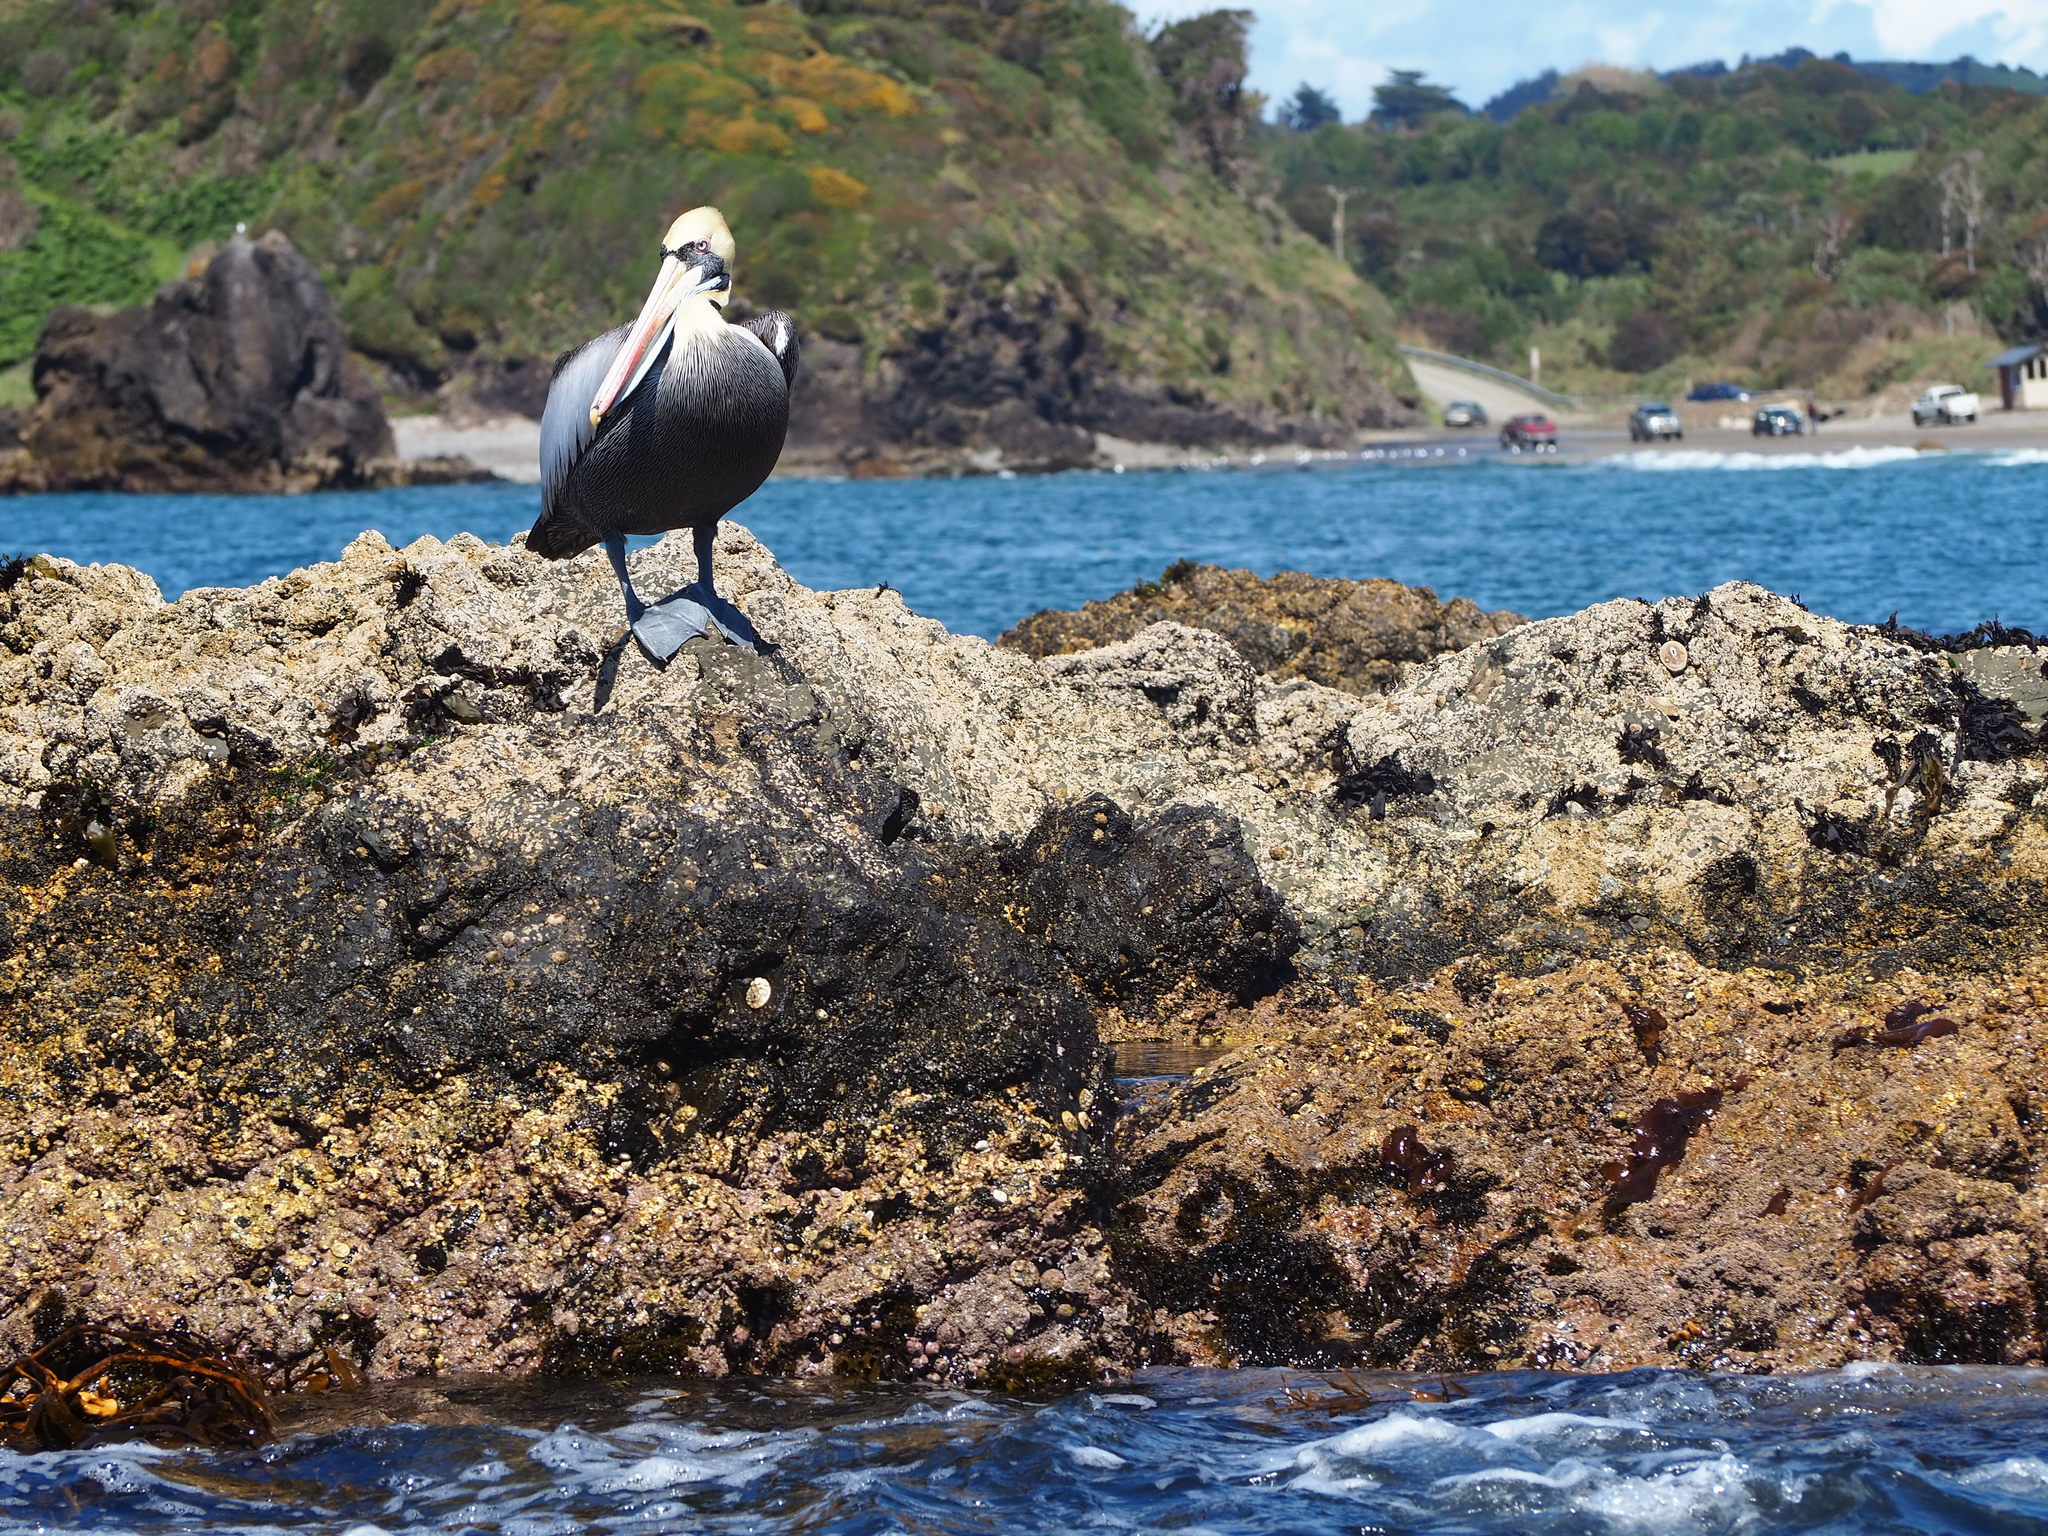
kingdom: Animalia
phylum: Chordata
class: Aves
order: Pelecaniformes
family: Pelecanidae
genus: Pelecanus
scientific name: Pelecanus thagus
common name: Peruvian pelican
